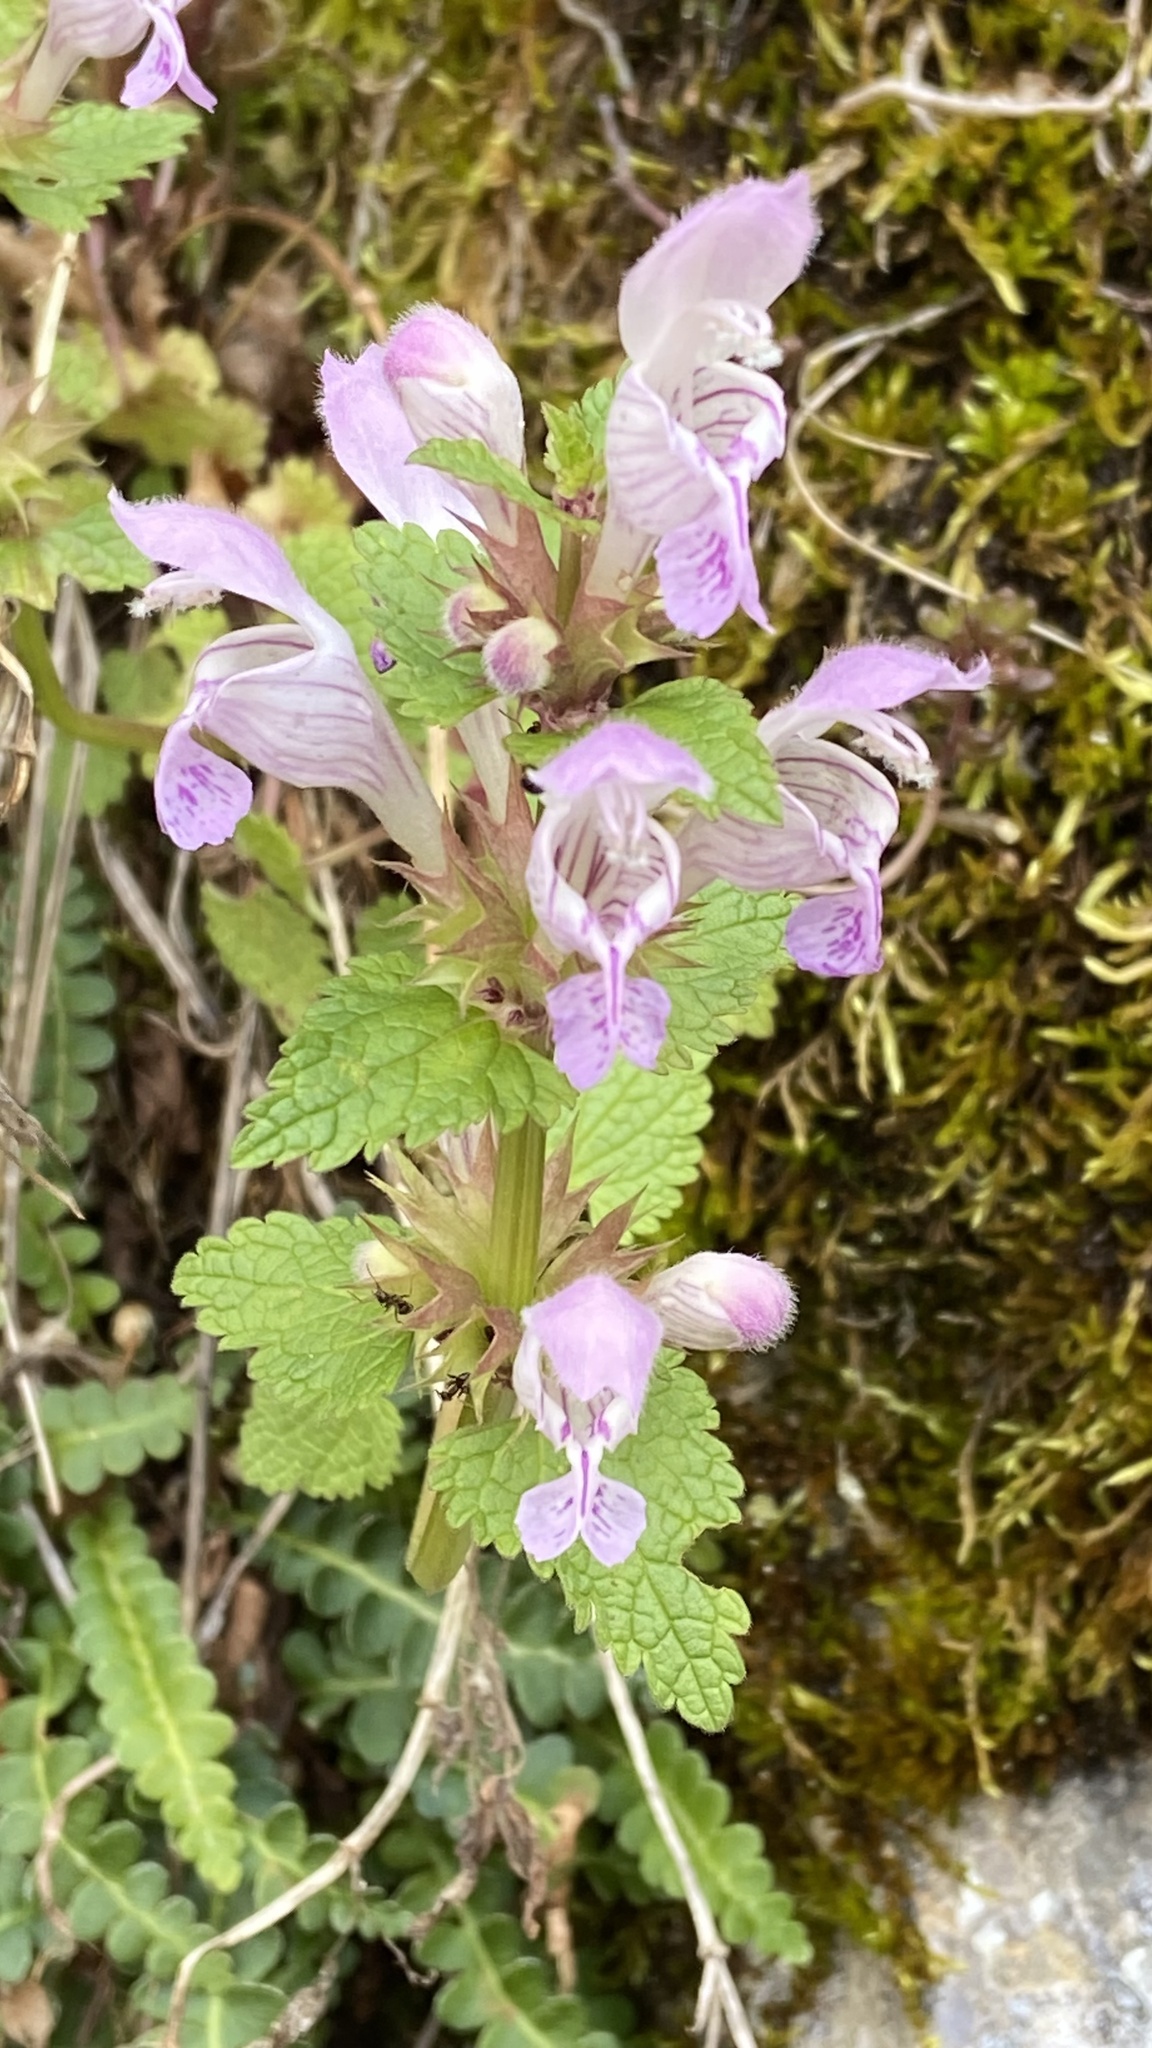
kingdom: Plantae
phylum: Tracheophyta
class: Magnoliopsida
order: Lamiales
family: Lamiaceae
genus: Lamium
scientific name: Lamium garganicum
